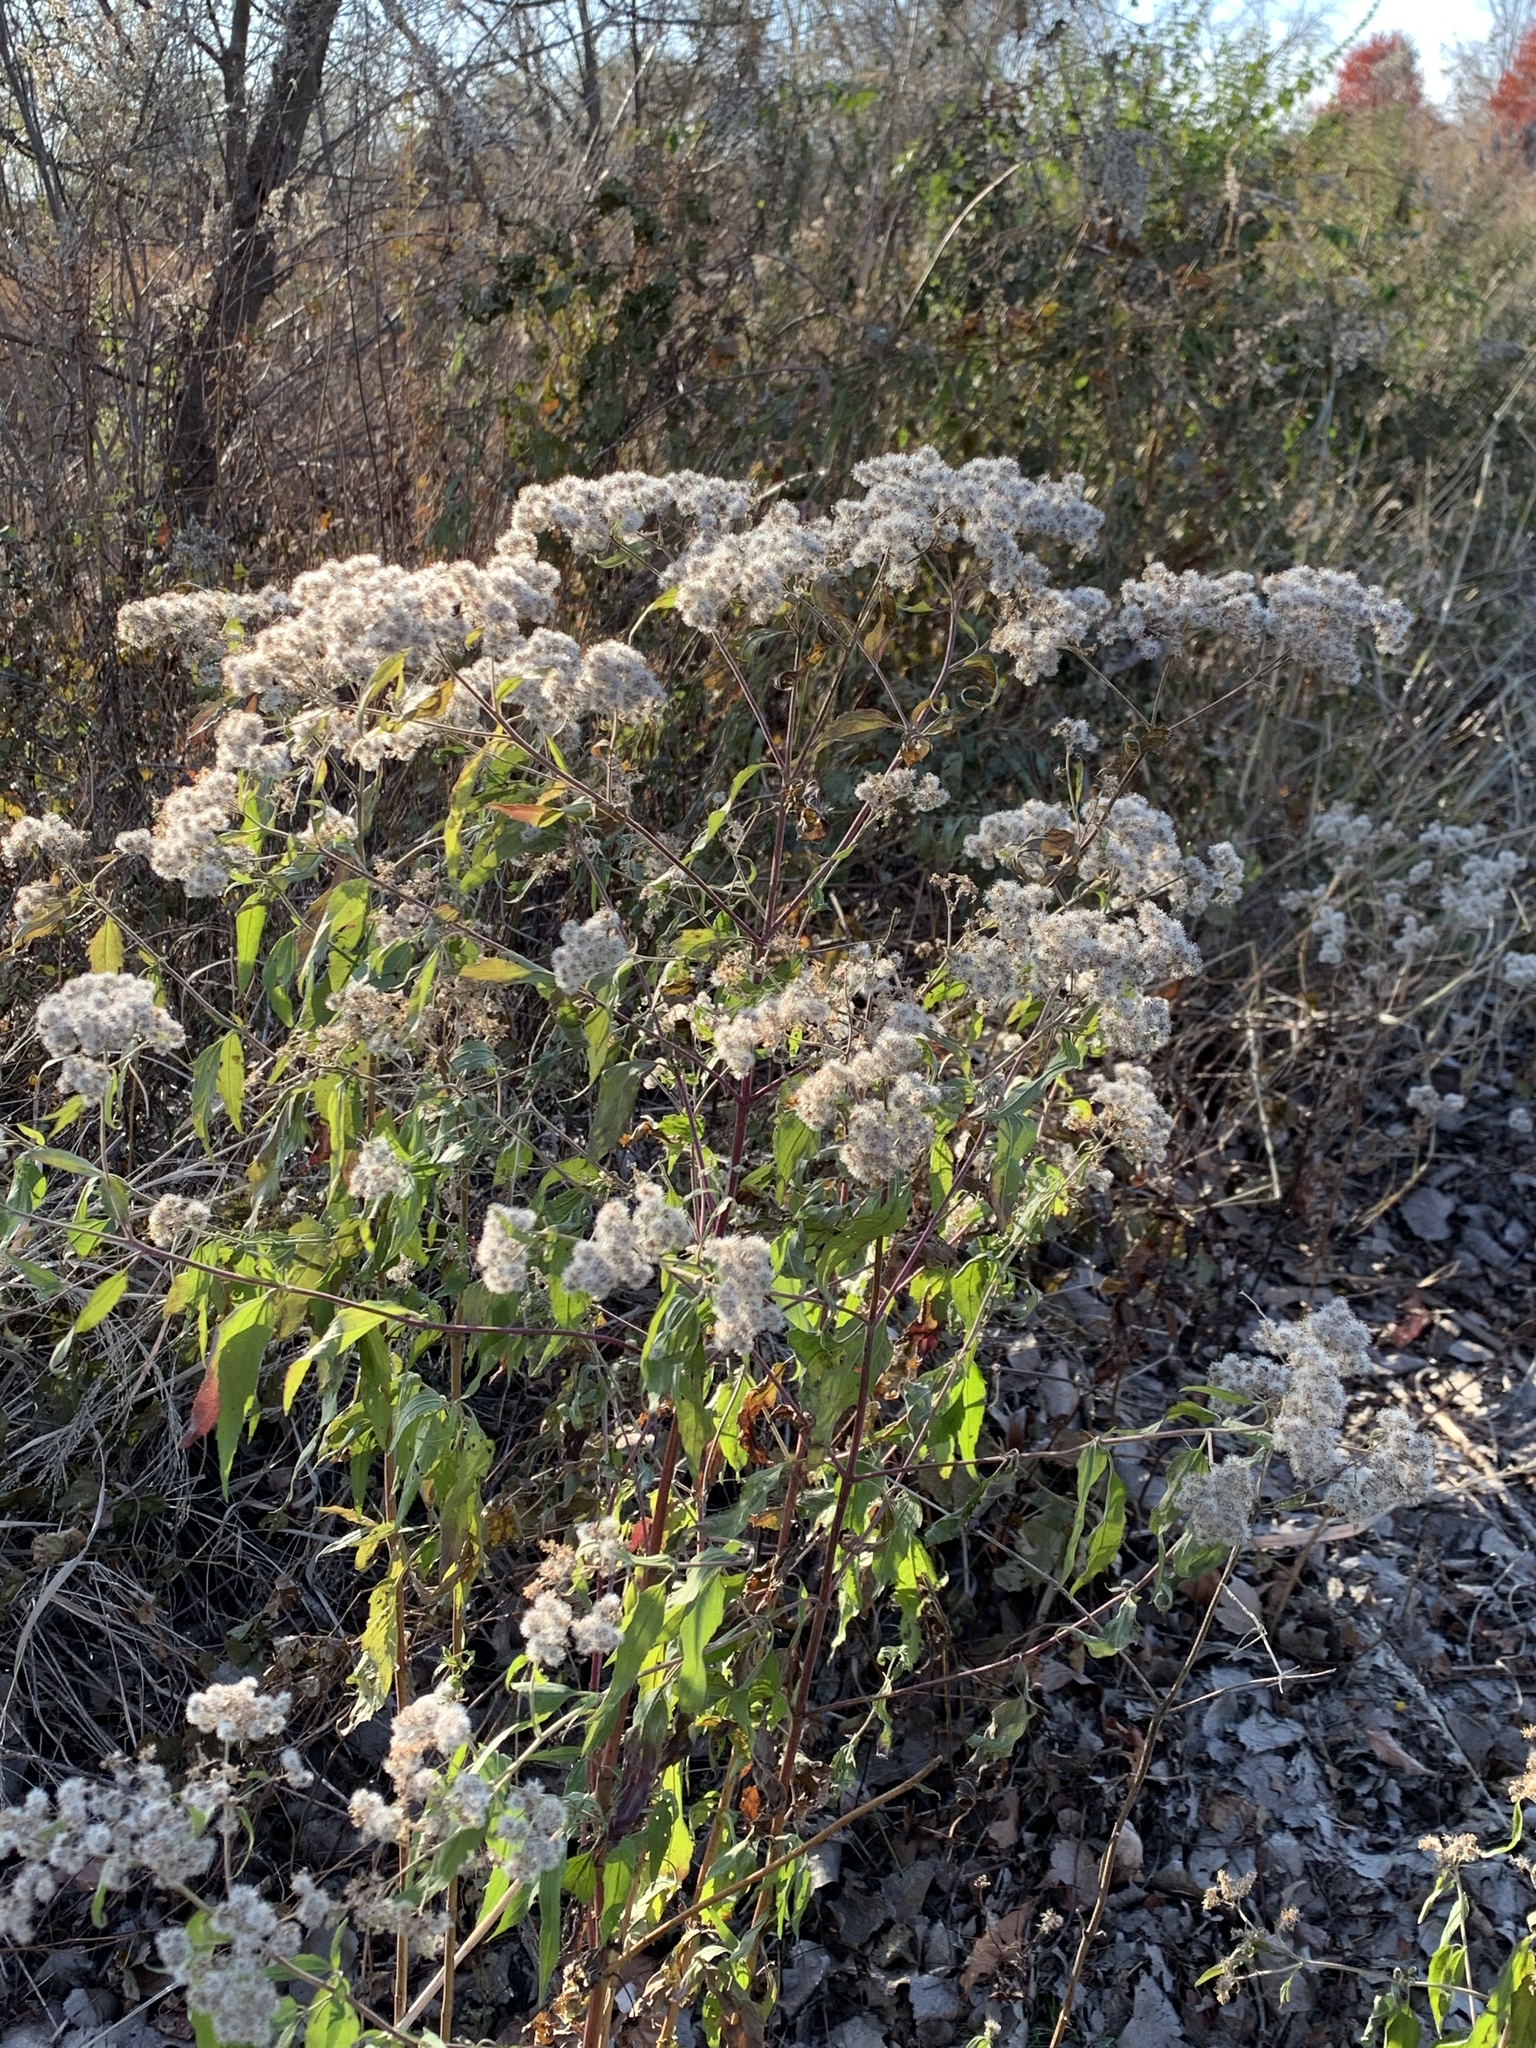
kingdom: Plantae
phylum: Tracheophyta
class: Magnoliopsida
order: Asterales
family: Asteraceae
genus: Eupatorium
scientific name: Eupatorium serotinum
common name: Late boneset
